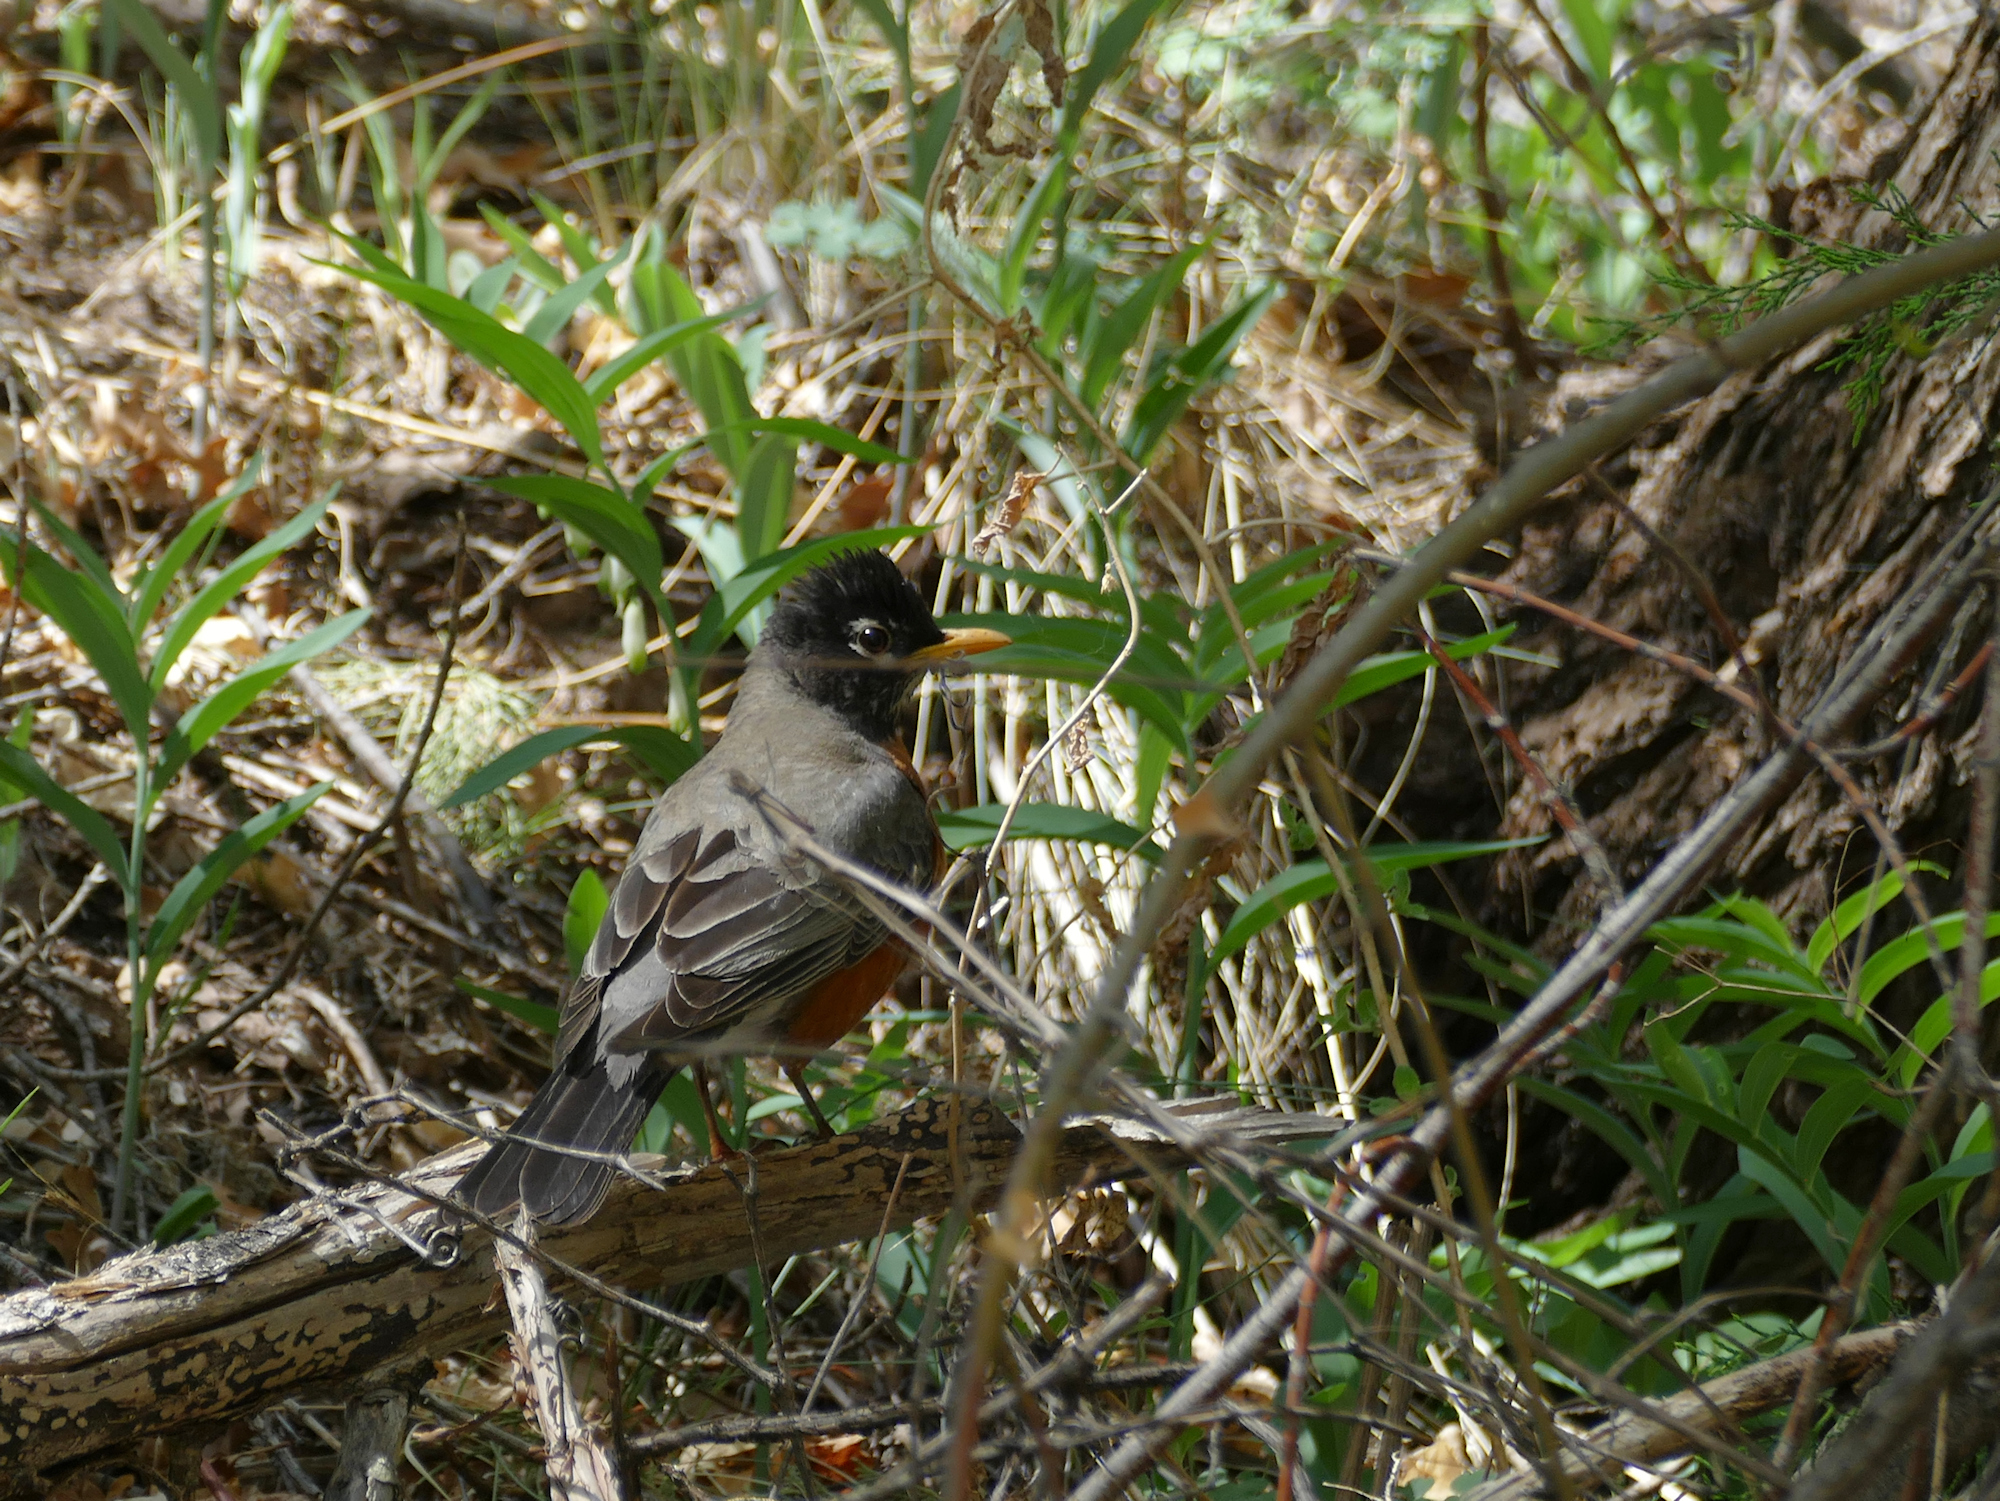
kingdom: Animalia
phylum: Chordata
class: Aves
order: Passeriformes
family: Turdidae
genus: Turdus
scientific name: Turdus migratorius
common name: American robin
